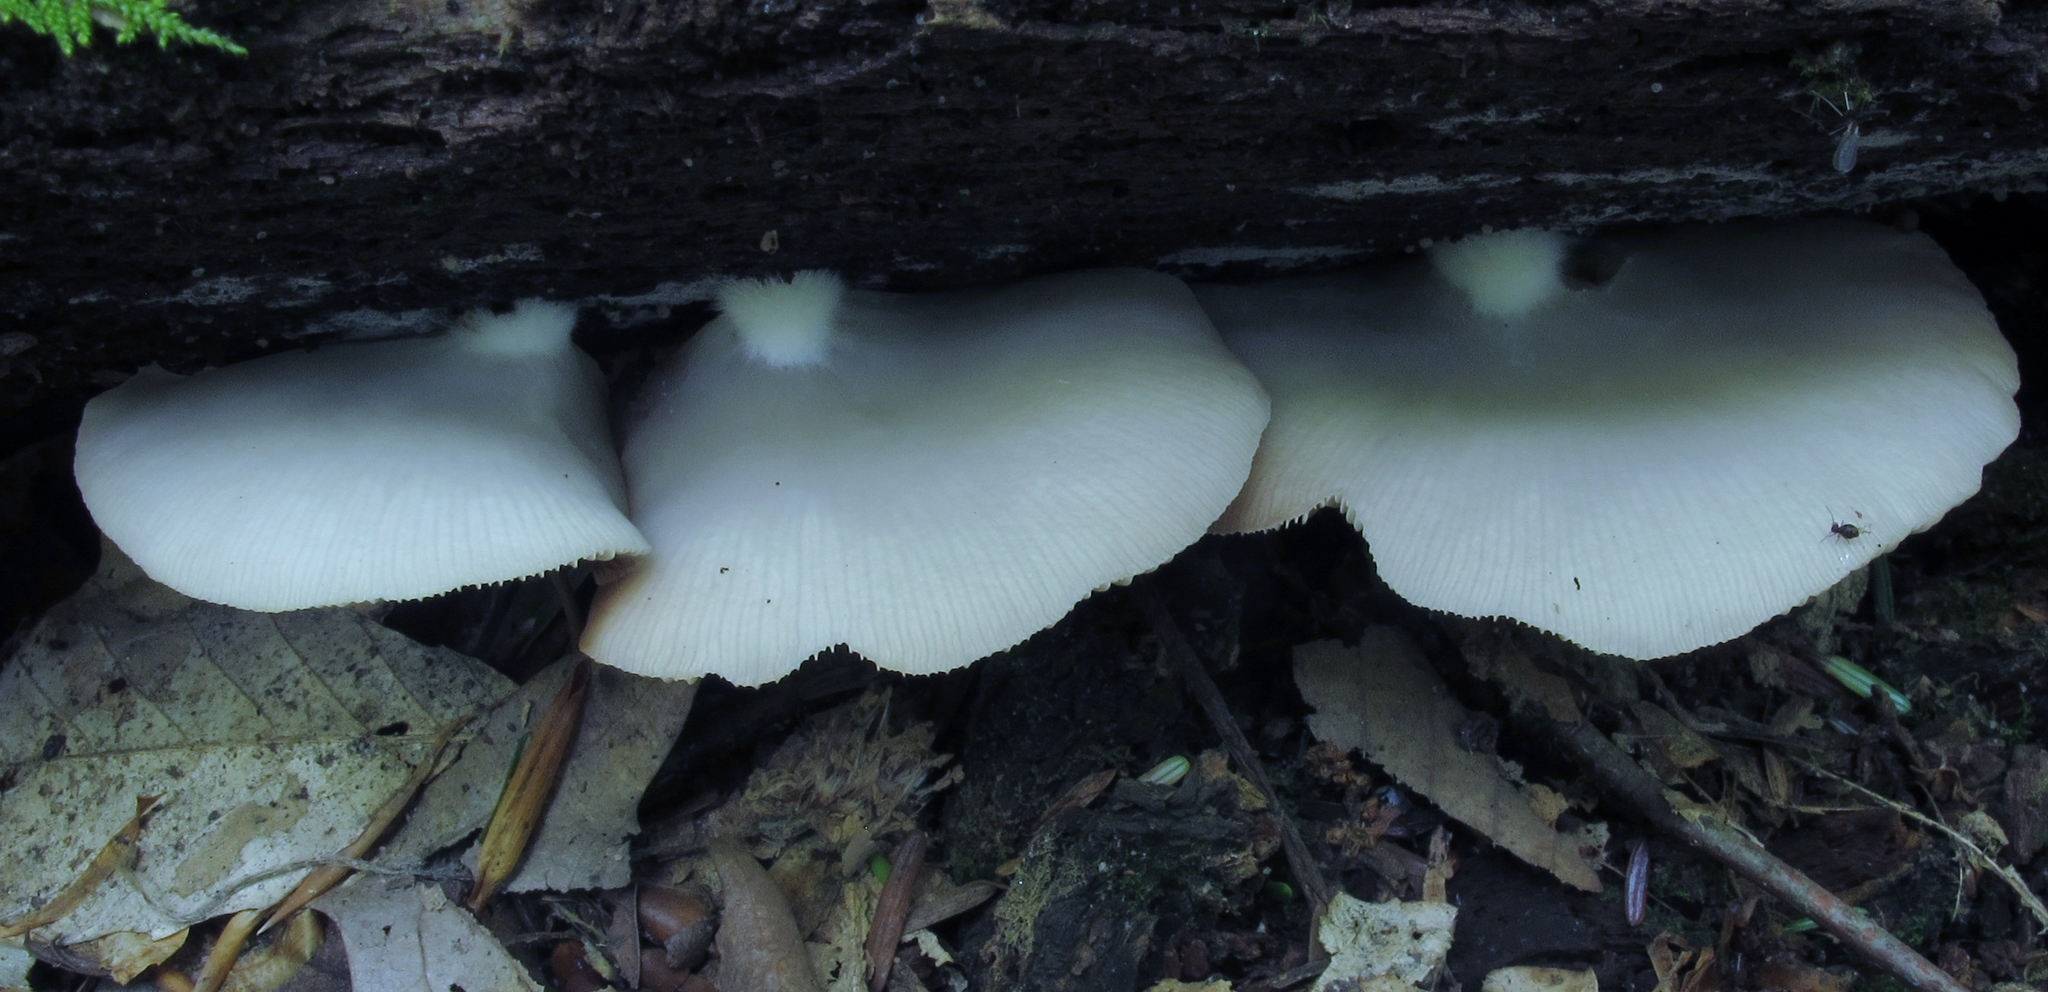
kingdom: Fungi
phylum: Basidiomycota
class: Agaricomycetes
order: Agaricales
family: Crepidotaceae
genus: Crepidotus
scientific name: Crepidotus applanatus
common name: Flat crep
